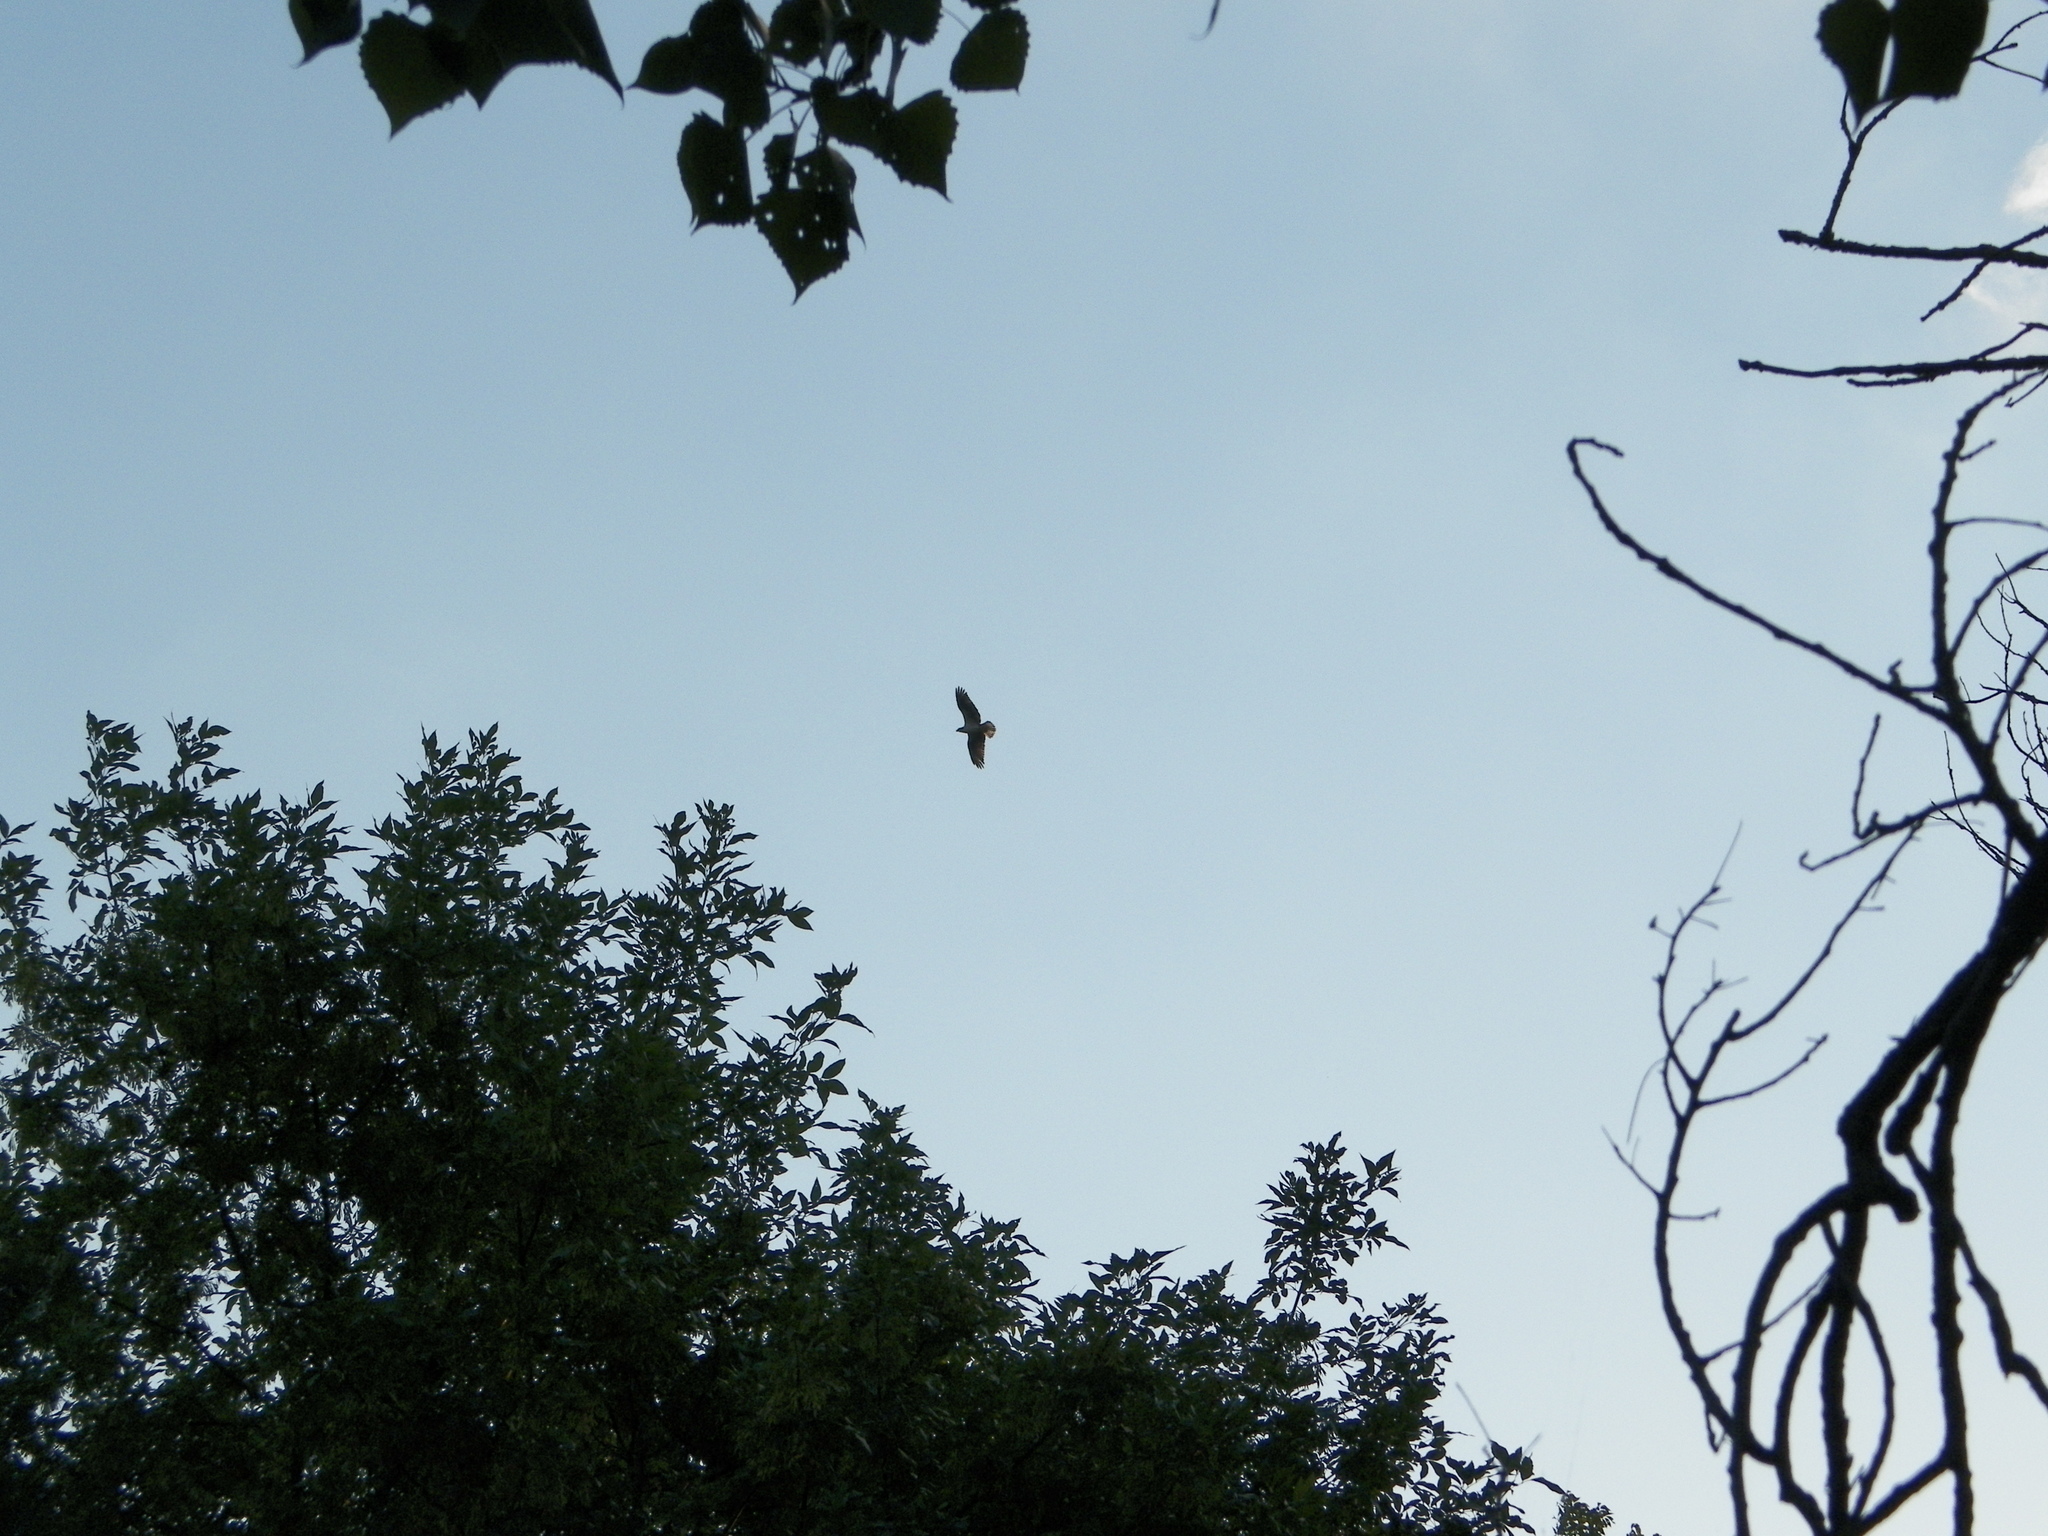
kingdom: Animalia
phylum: Chordata
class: Aves
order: Accipitriformes
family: Pandionidae
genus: Pandion
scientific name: Pandion haliaetus
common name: Osprey
